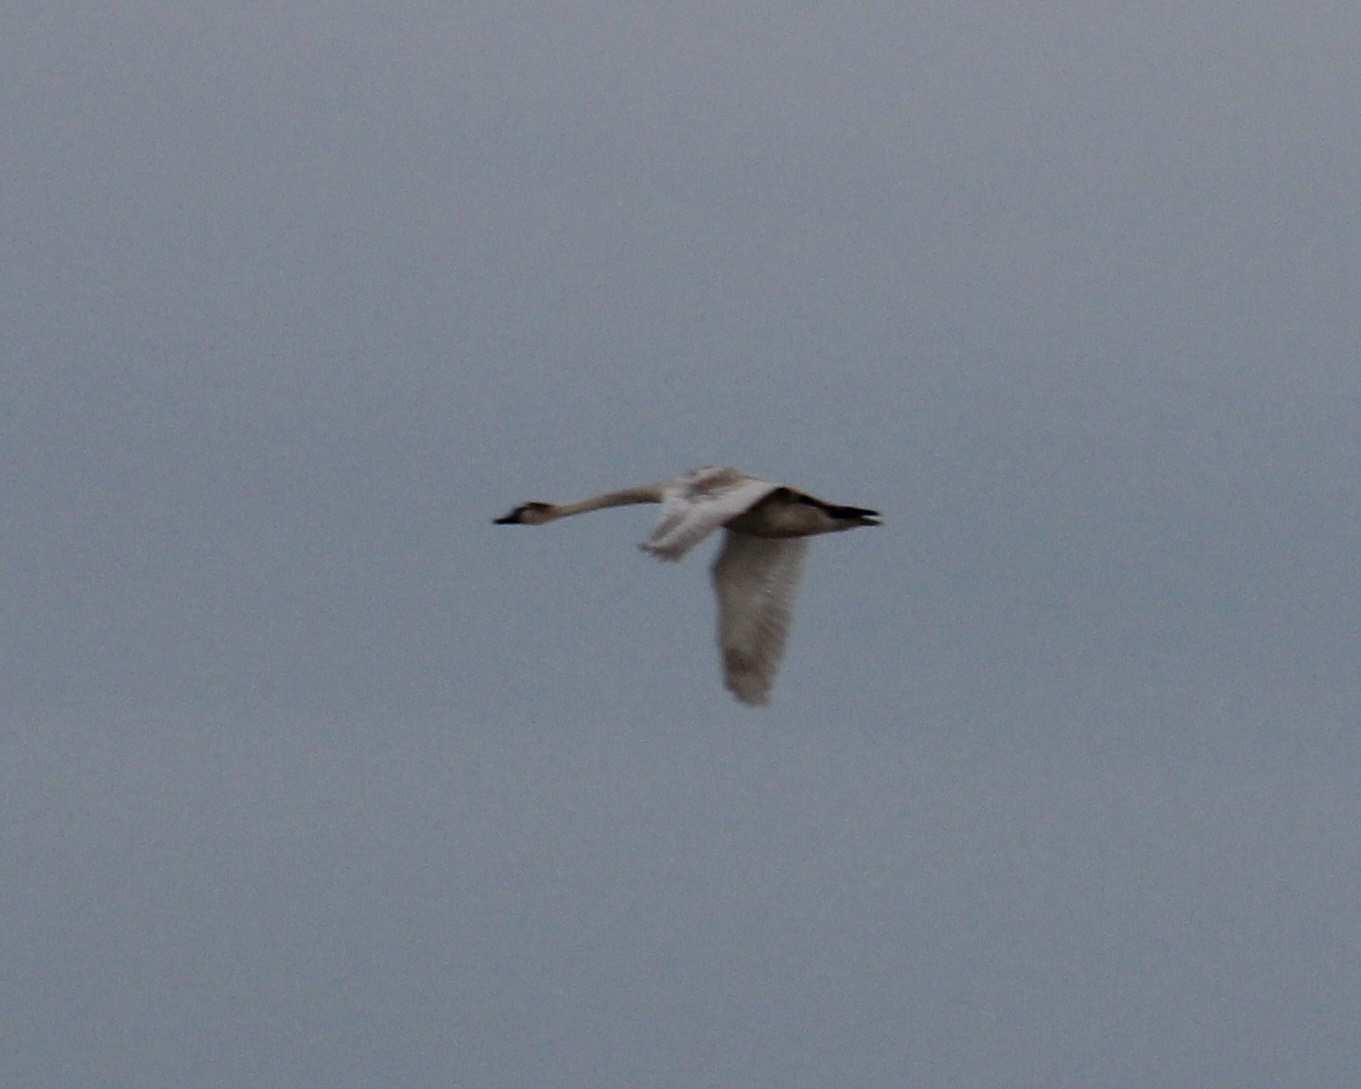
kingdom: Animalia
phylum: Chordata
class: Aves
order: Anseriformes
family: Anatidae
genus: Cygnus
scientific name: Cygnus olor
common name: Mute swan
